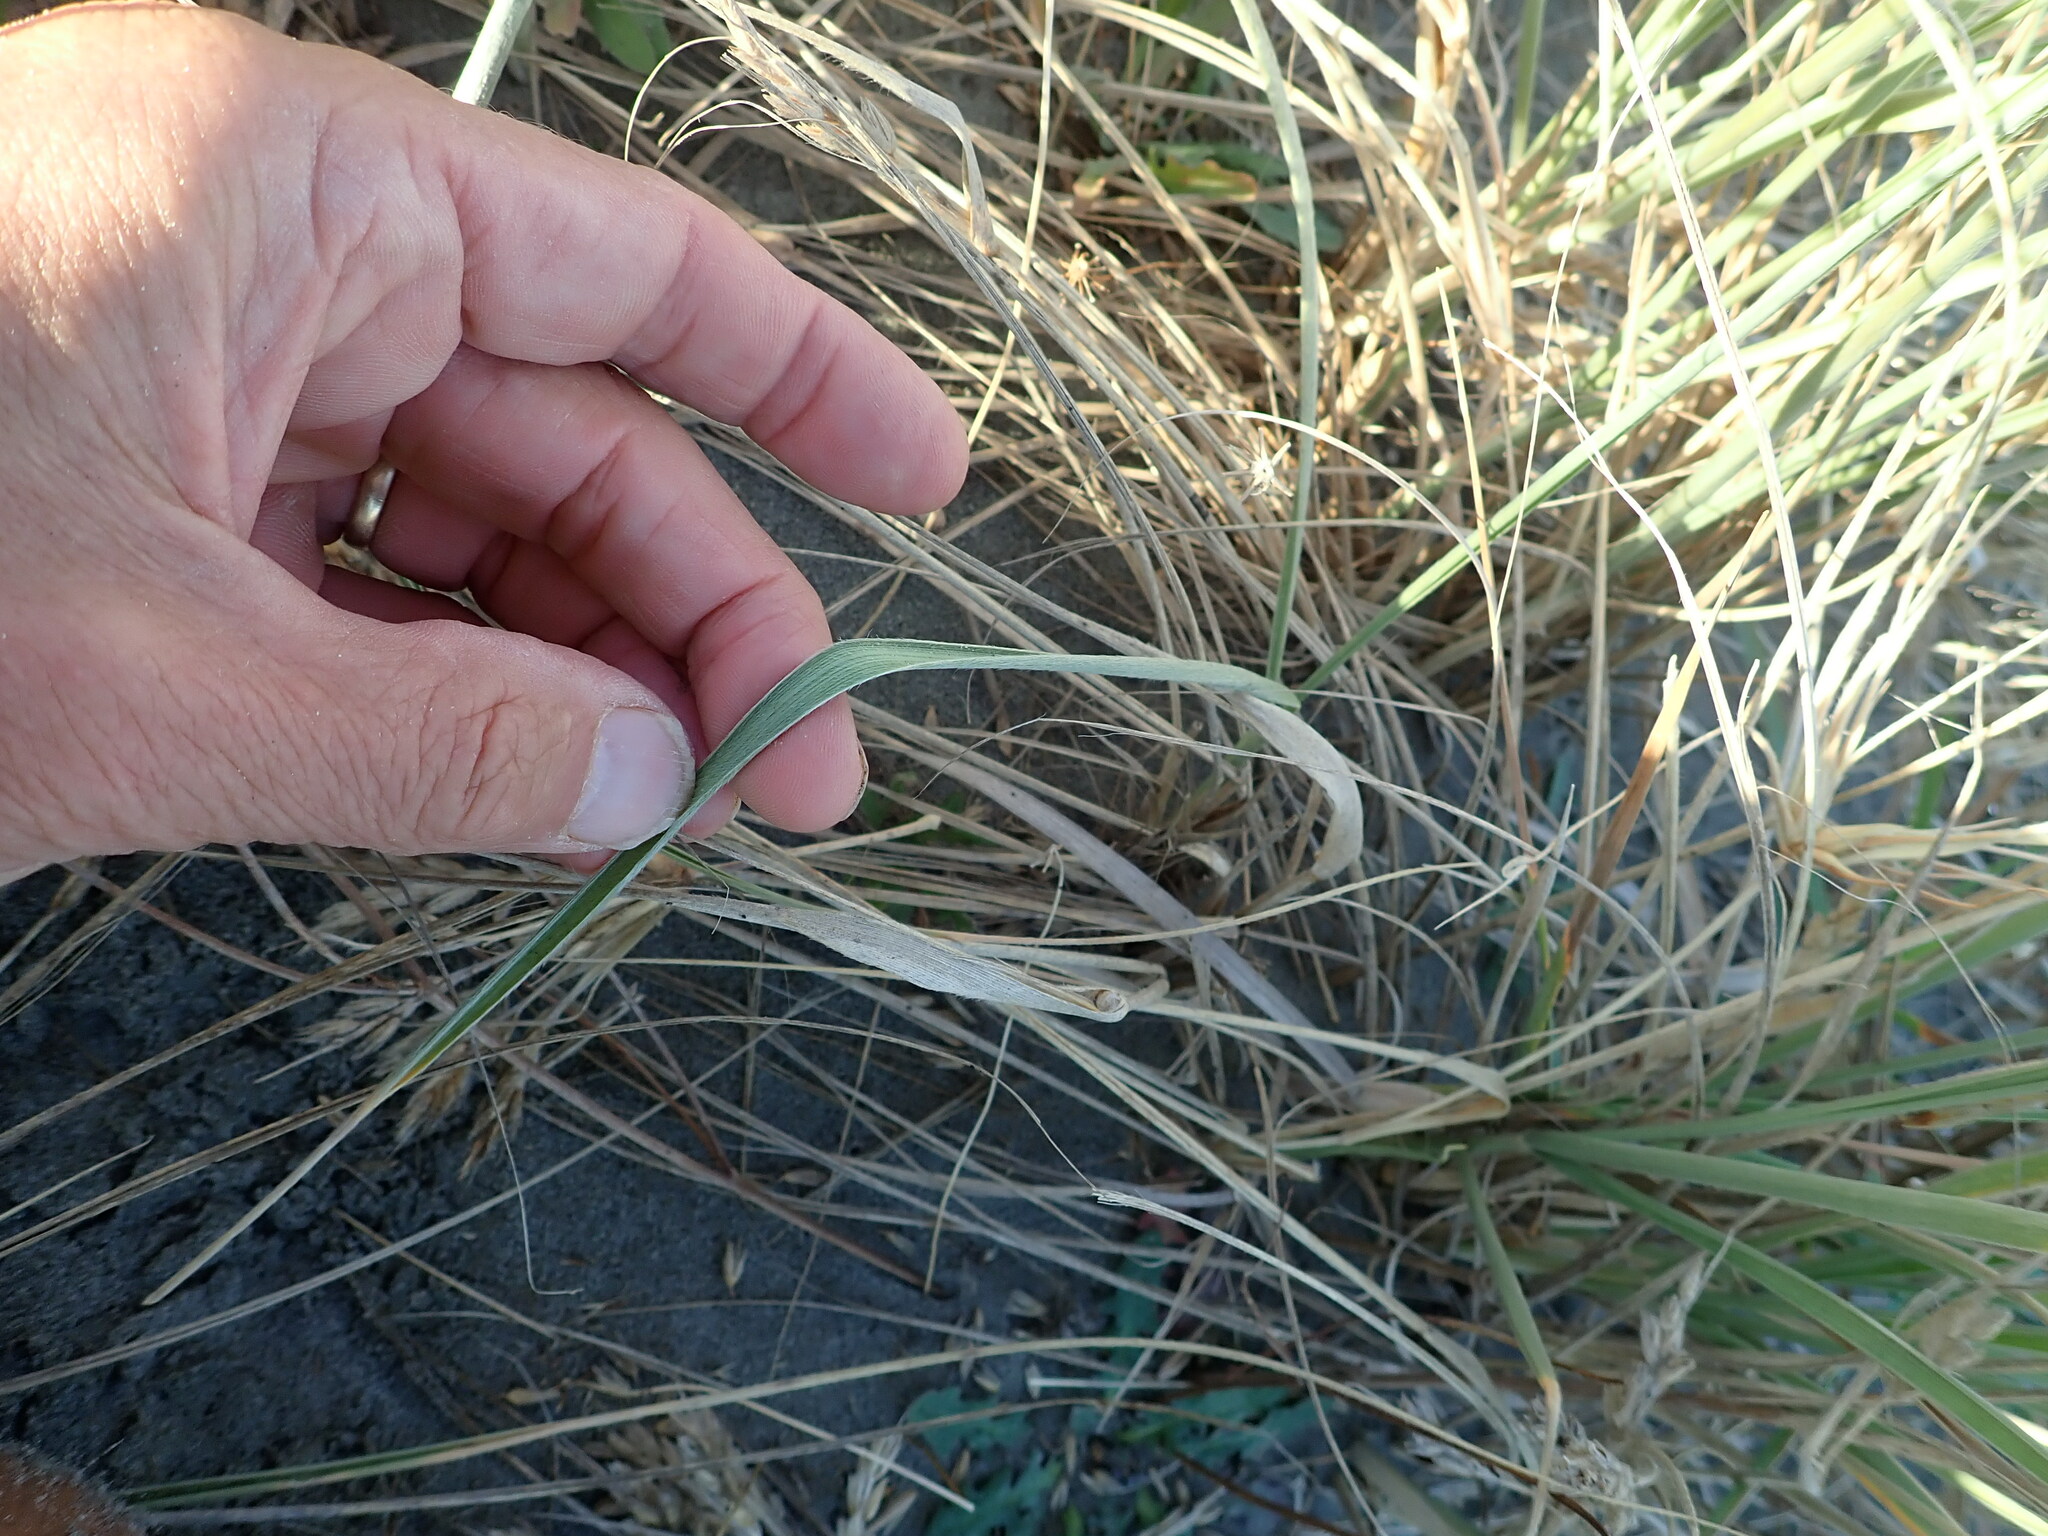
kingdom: Plantae
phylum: Tracheophyta
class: Liliopsida
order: Poales
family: Poaceae
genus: Spinifex
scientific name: Spinifex sericeus
